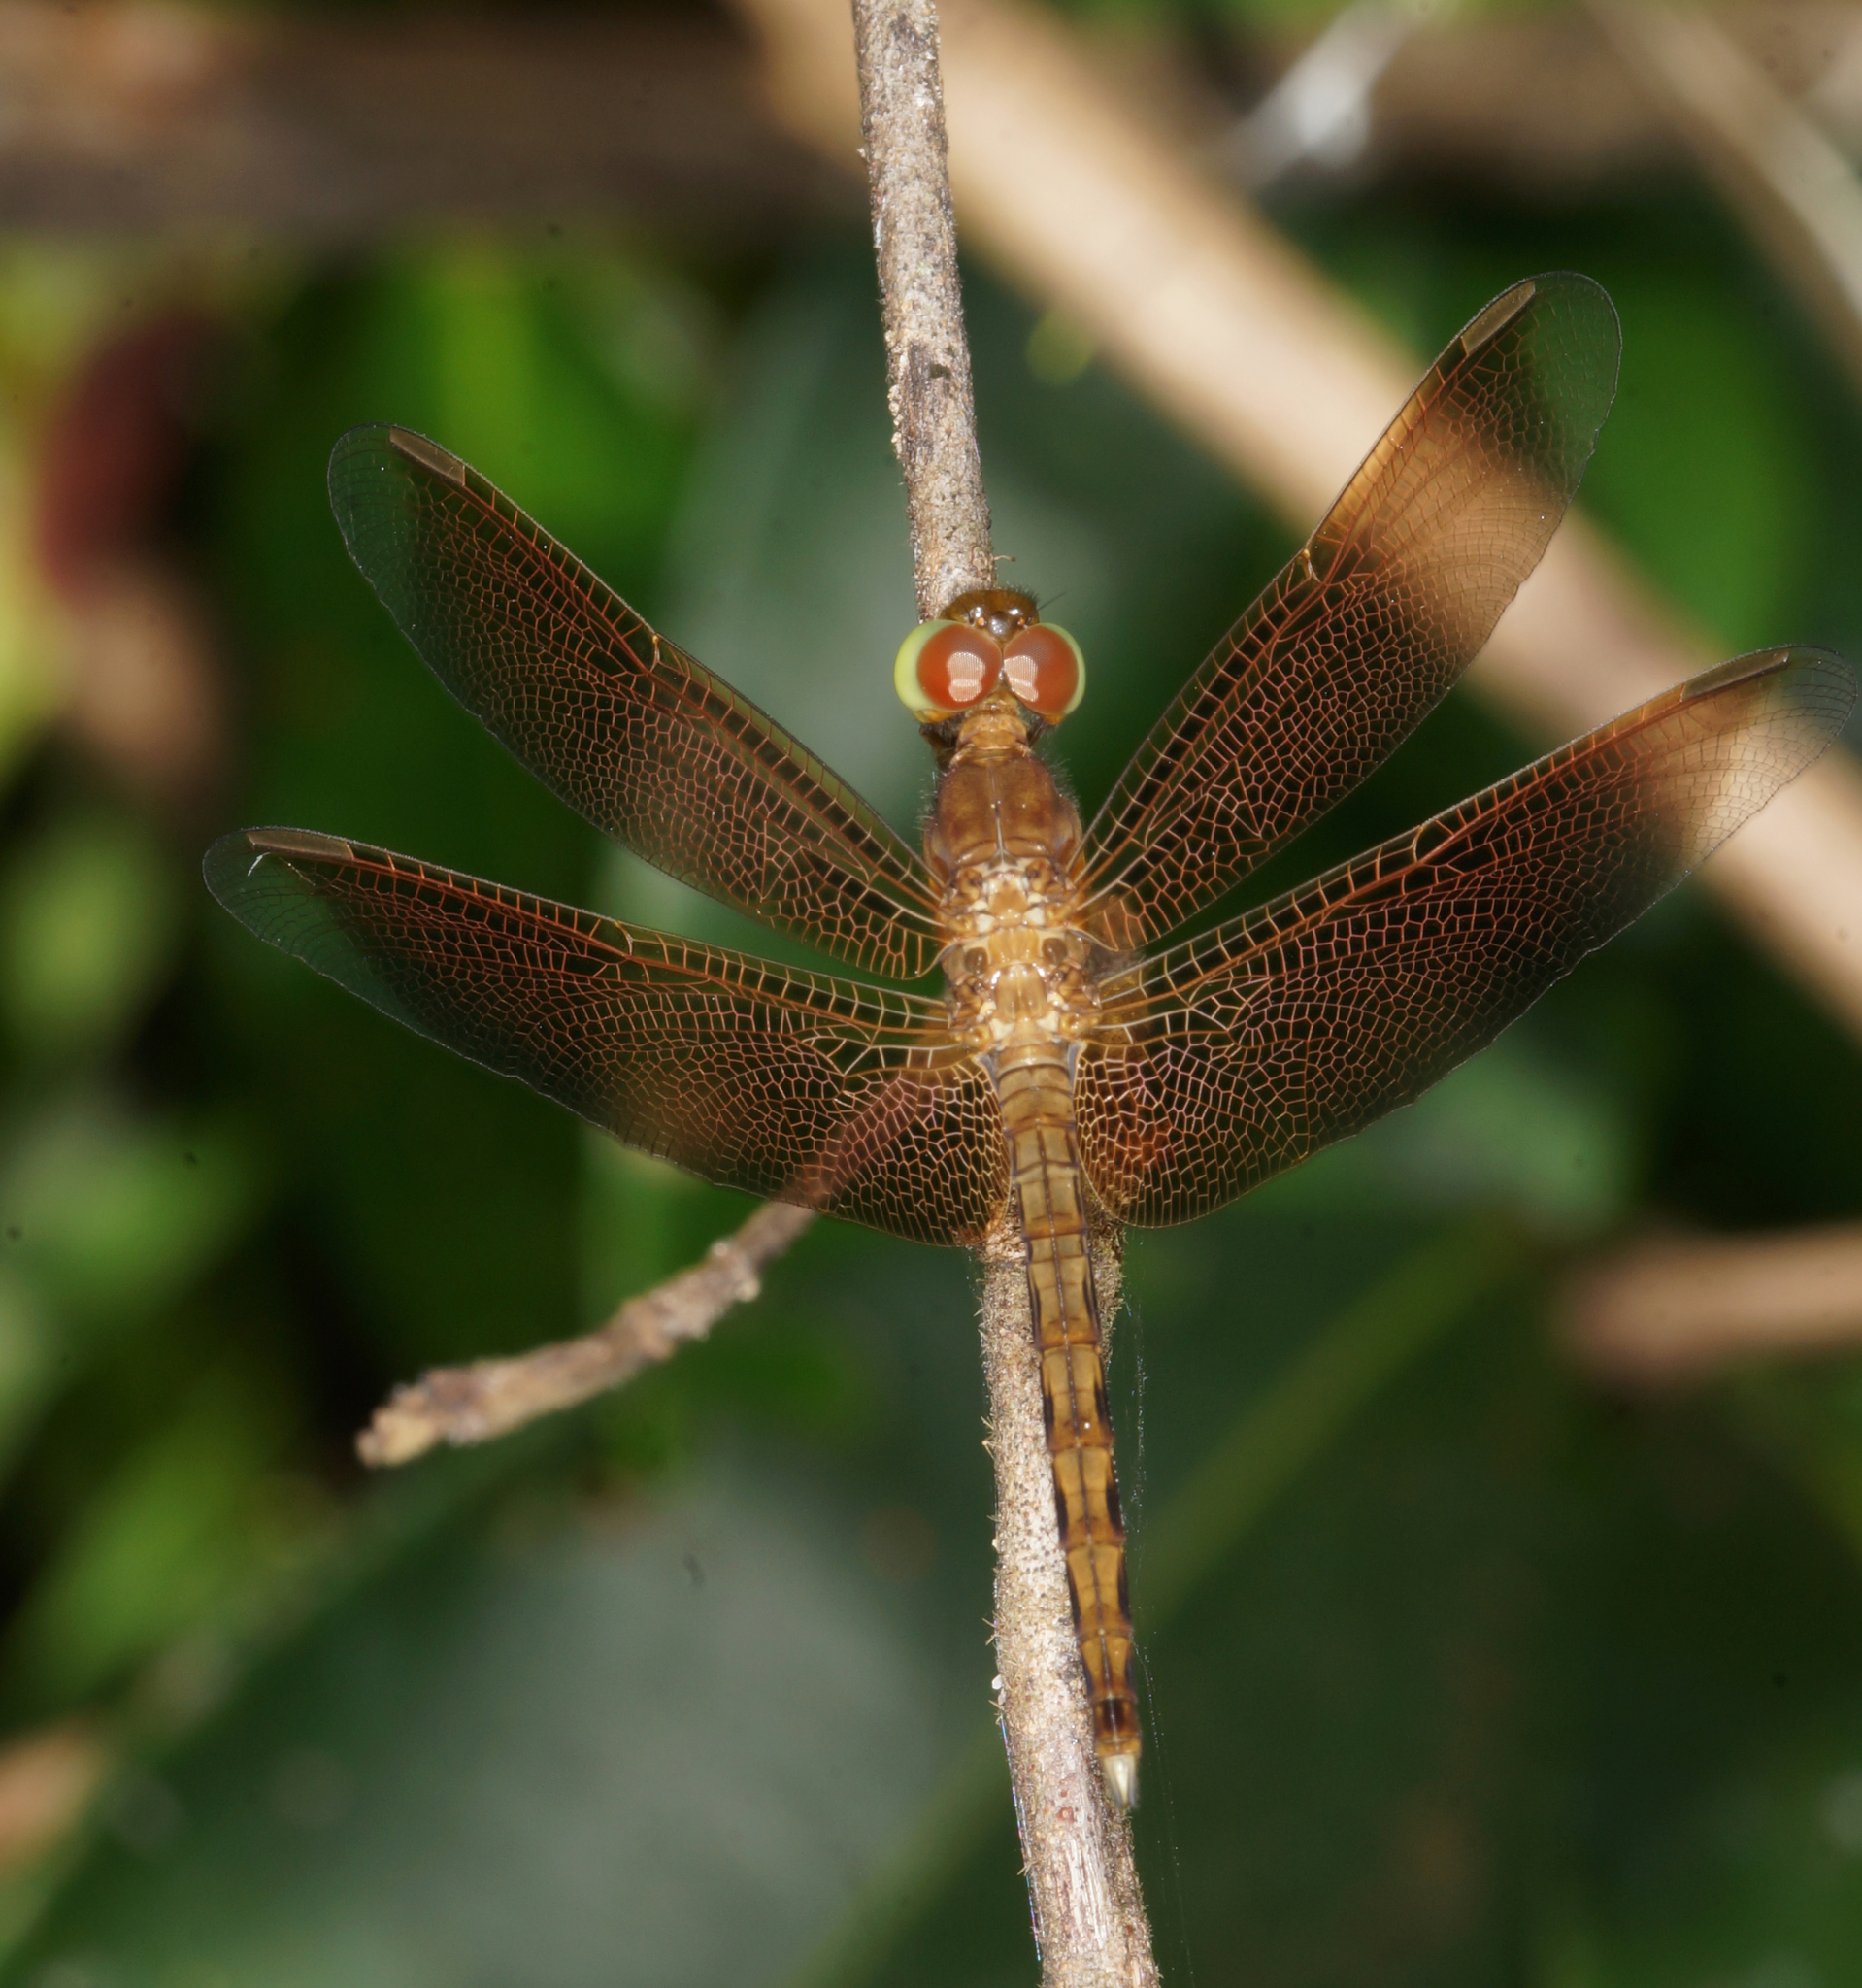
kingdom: Animalia
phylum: Arthropoda
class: Insecta
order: Odonata
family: Libellulidae
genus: Neurothemis
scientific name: Neurothemis fluctuans
